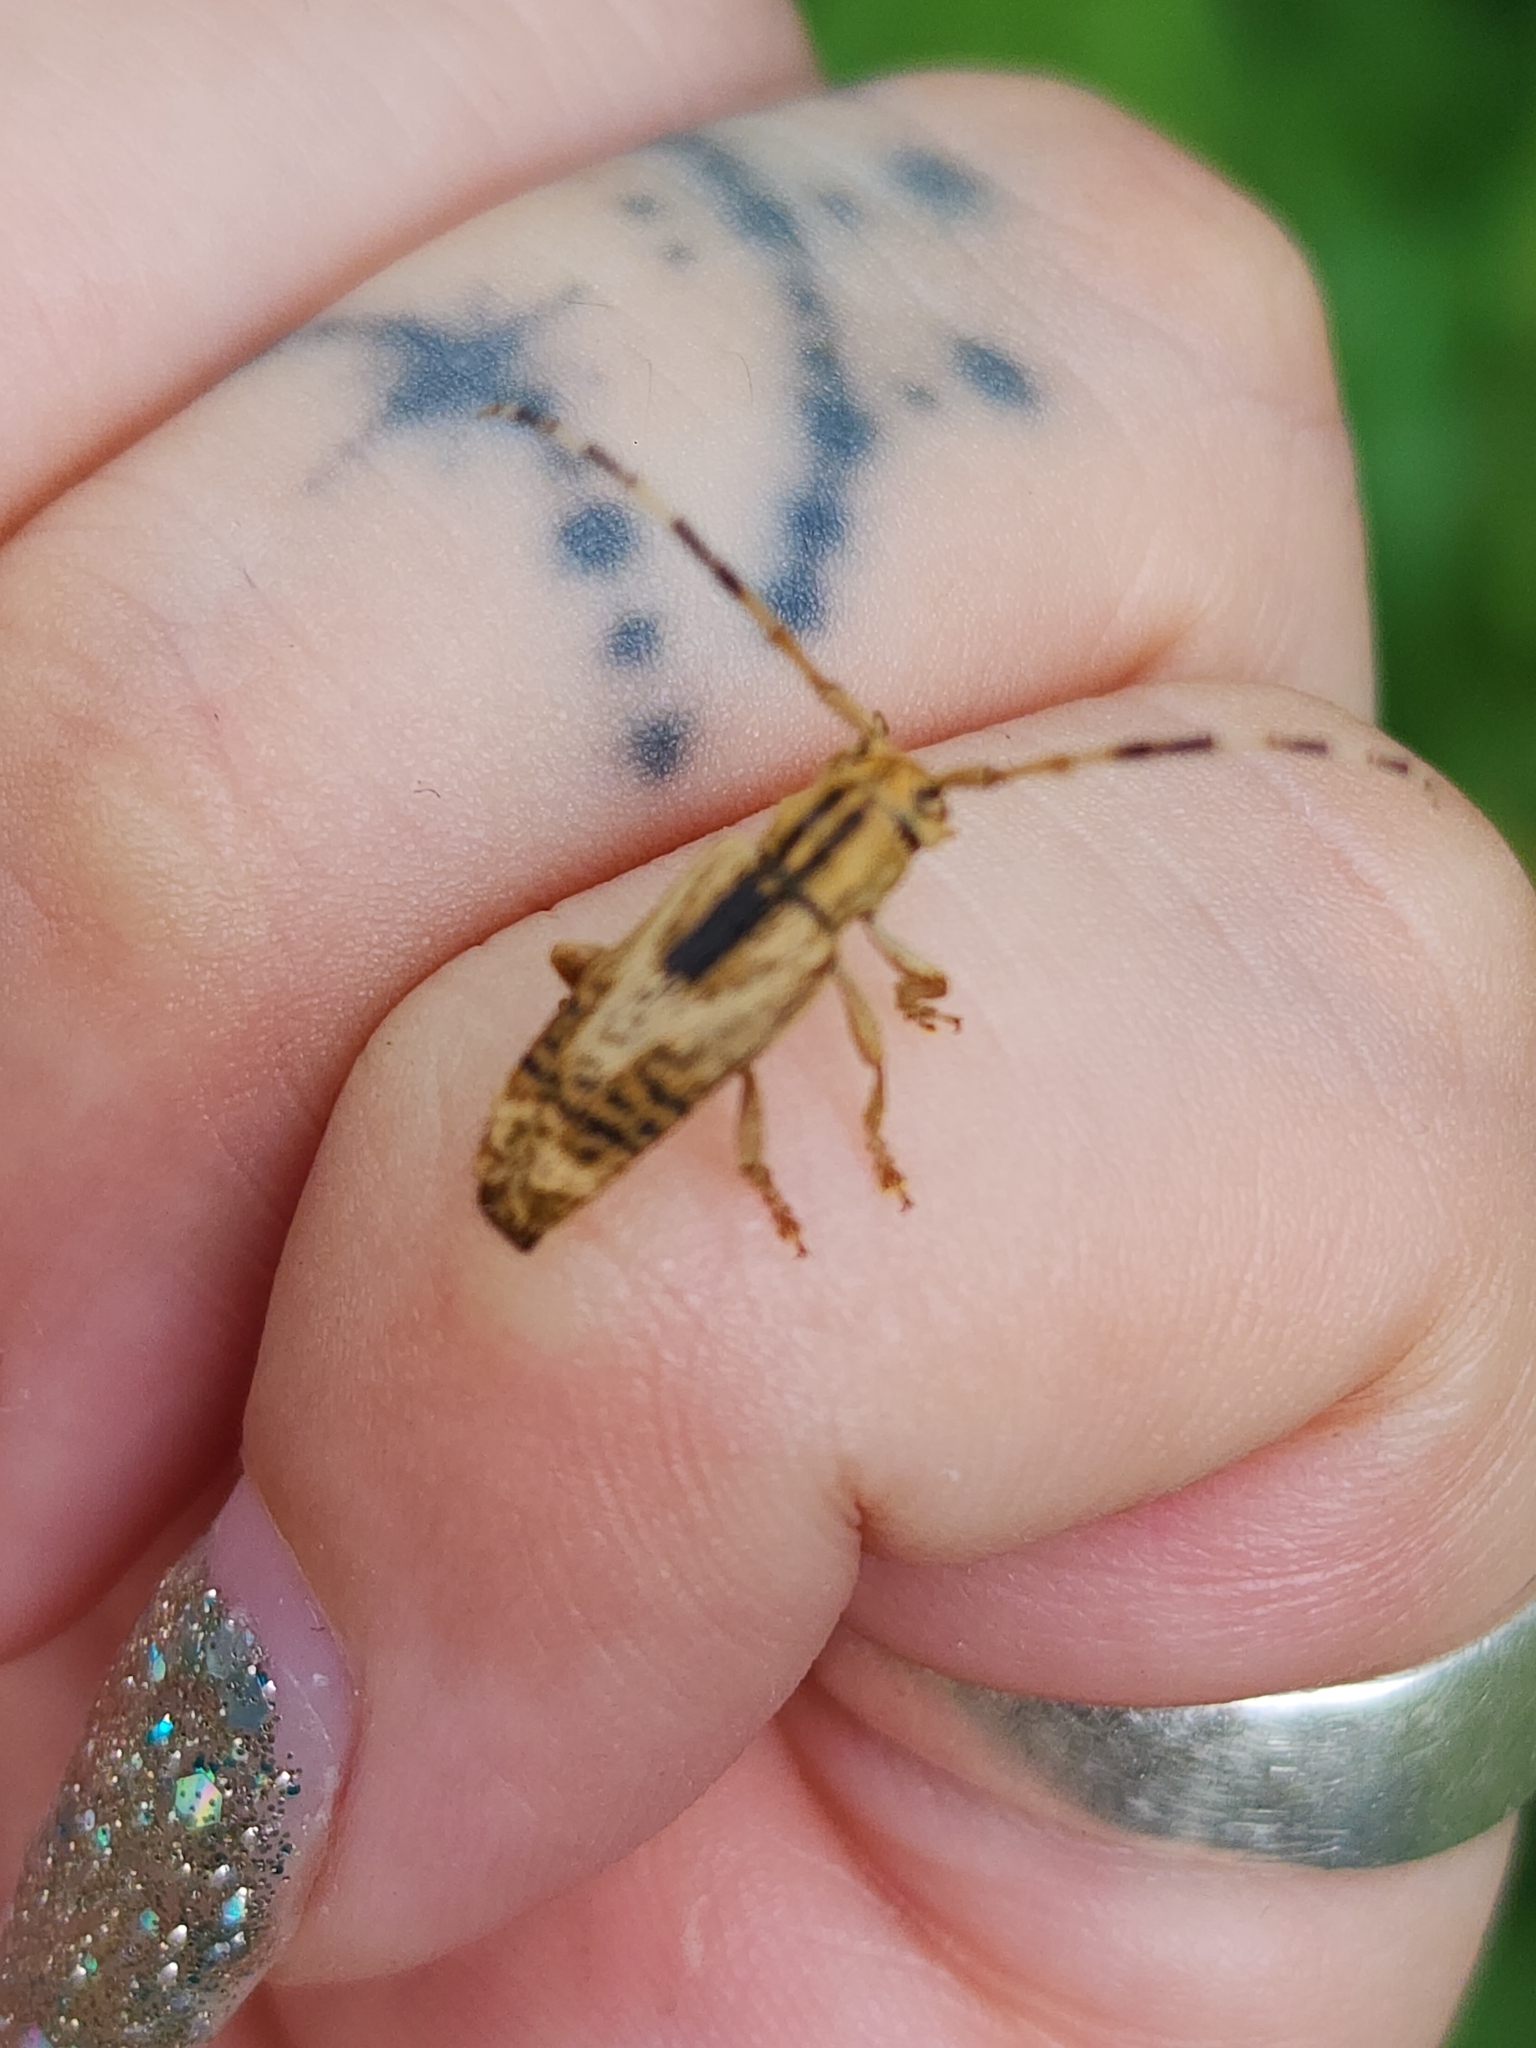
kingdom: Animalia
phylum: Arthropoda
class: Insecta
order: Coleoptera
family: Cerambycidae
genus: Bisaltes
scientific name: Bisaltes spegazzinii
